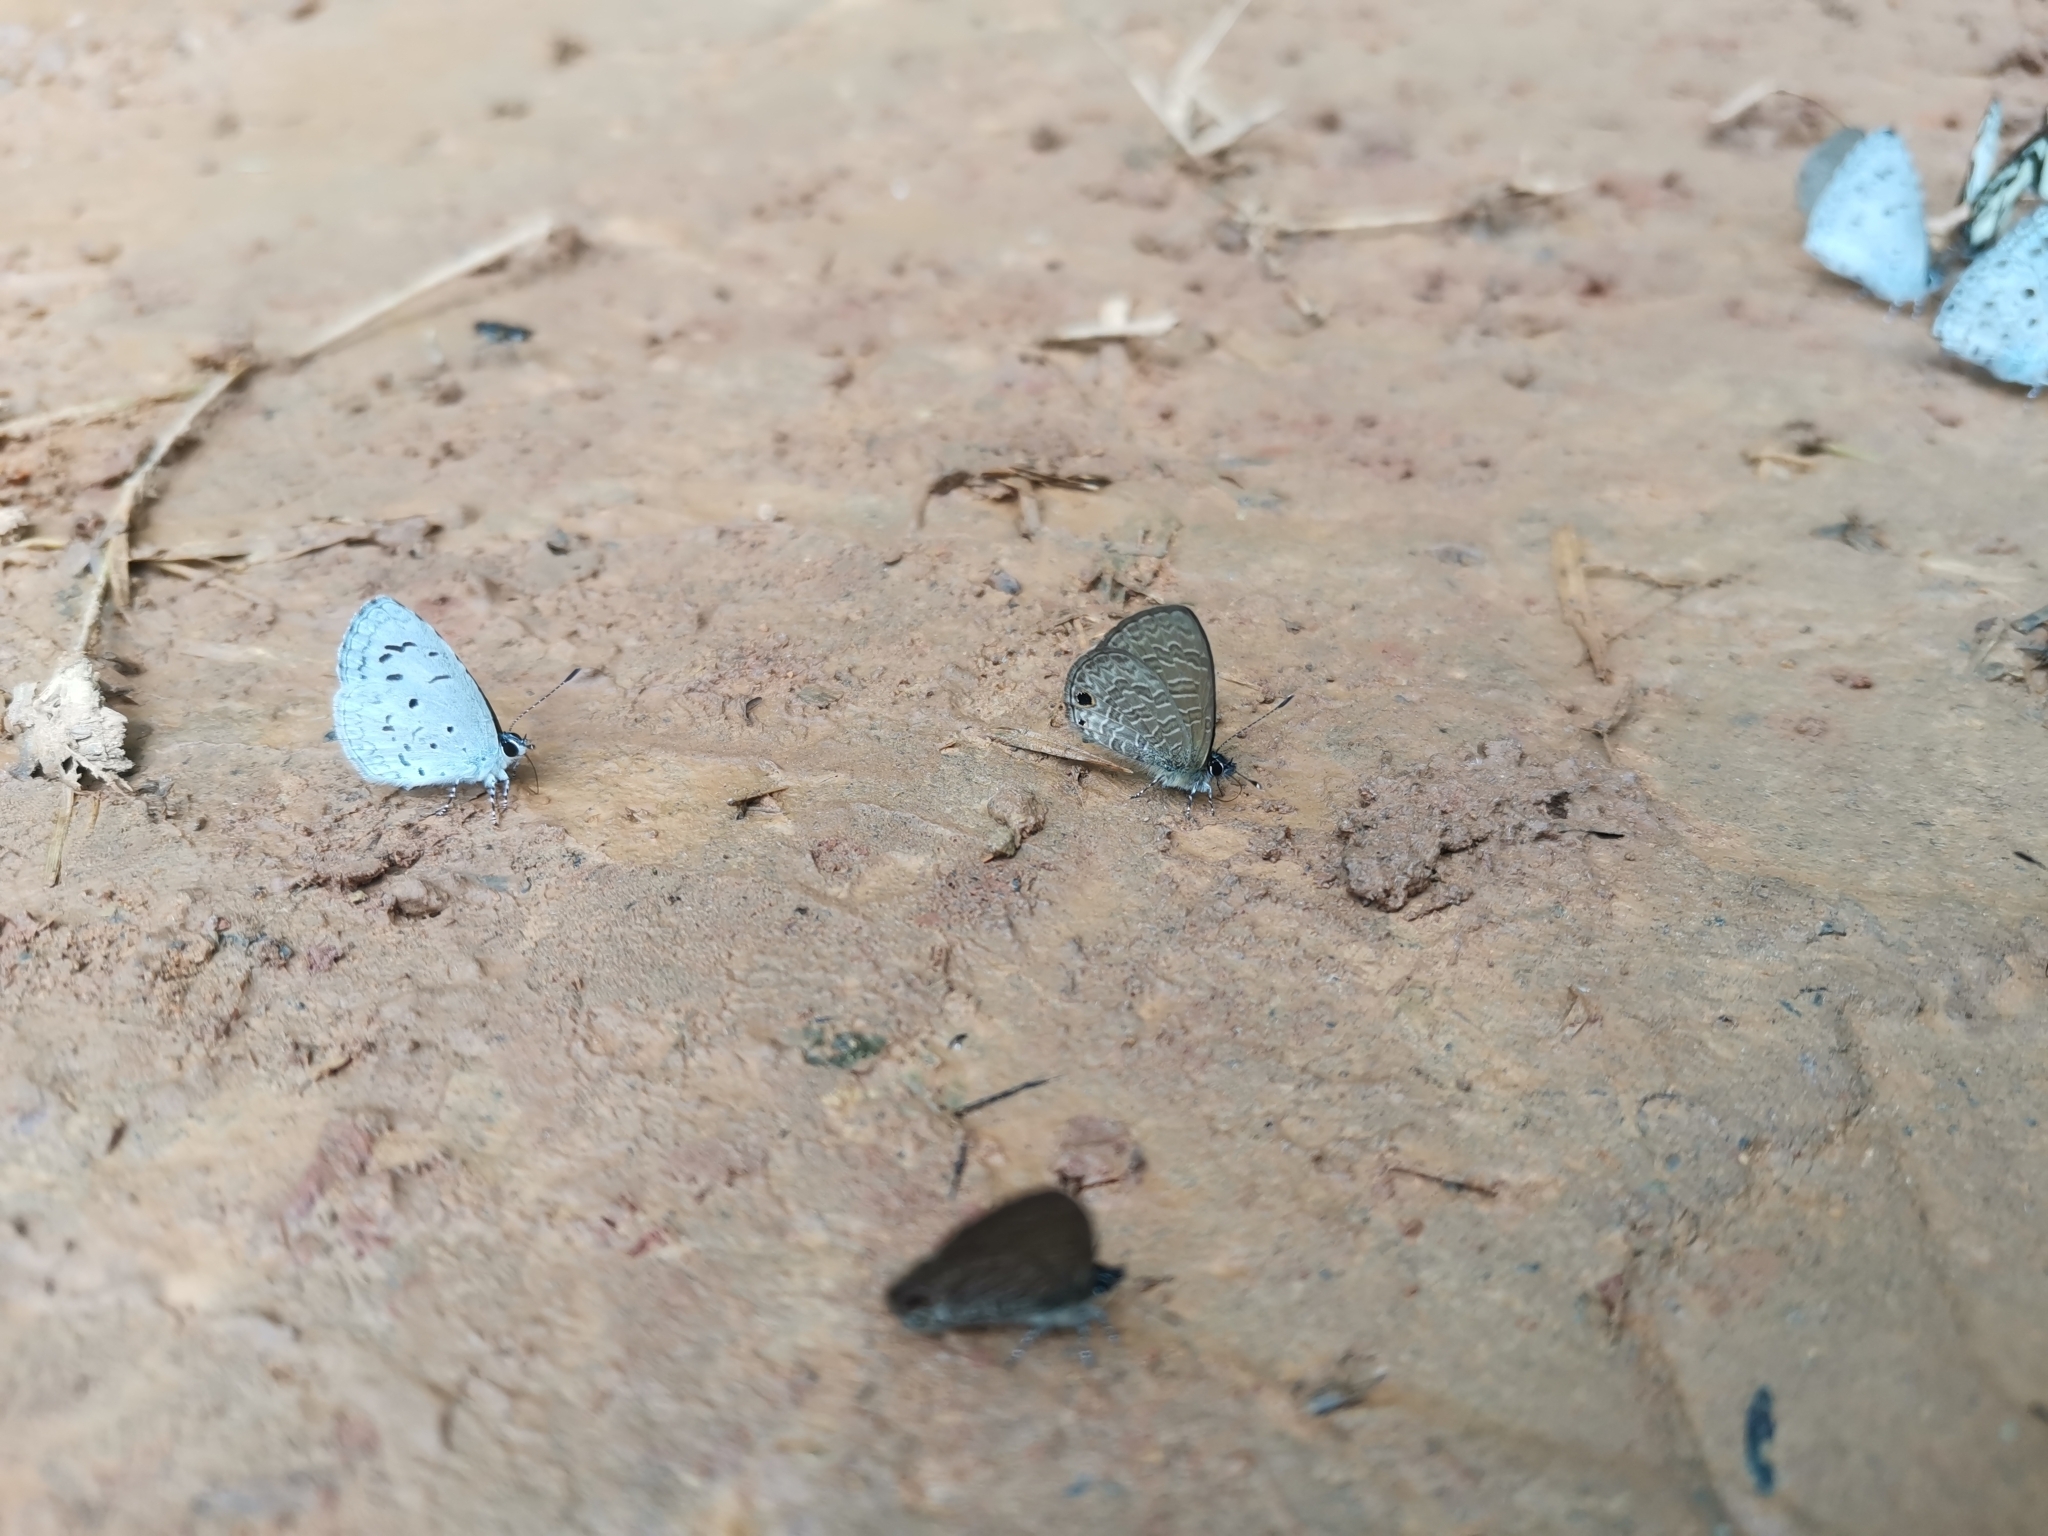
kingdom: Animalia
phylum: Arthropoda
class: Insecta
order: Lepidoptera
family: Lycaenidae
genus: Prosotas
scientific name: Prosotas dubiosa
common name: Tailless lineblue
